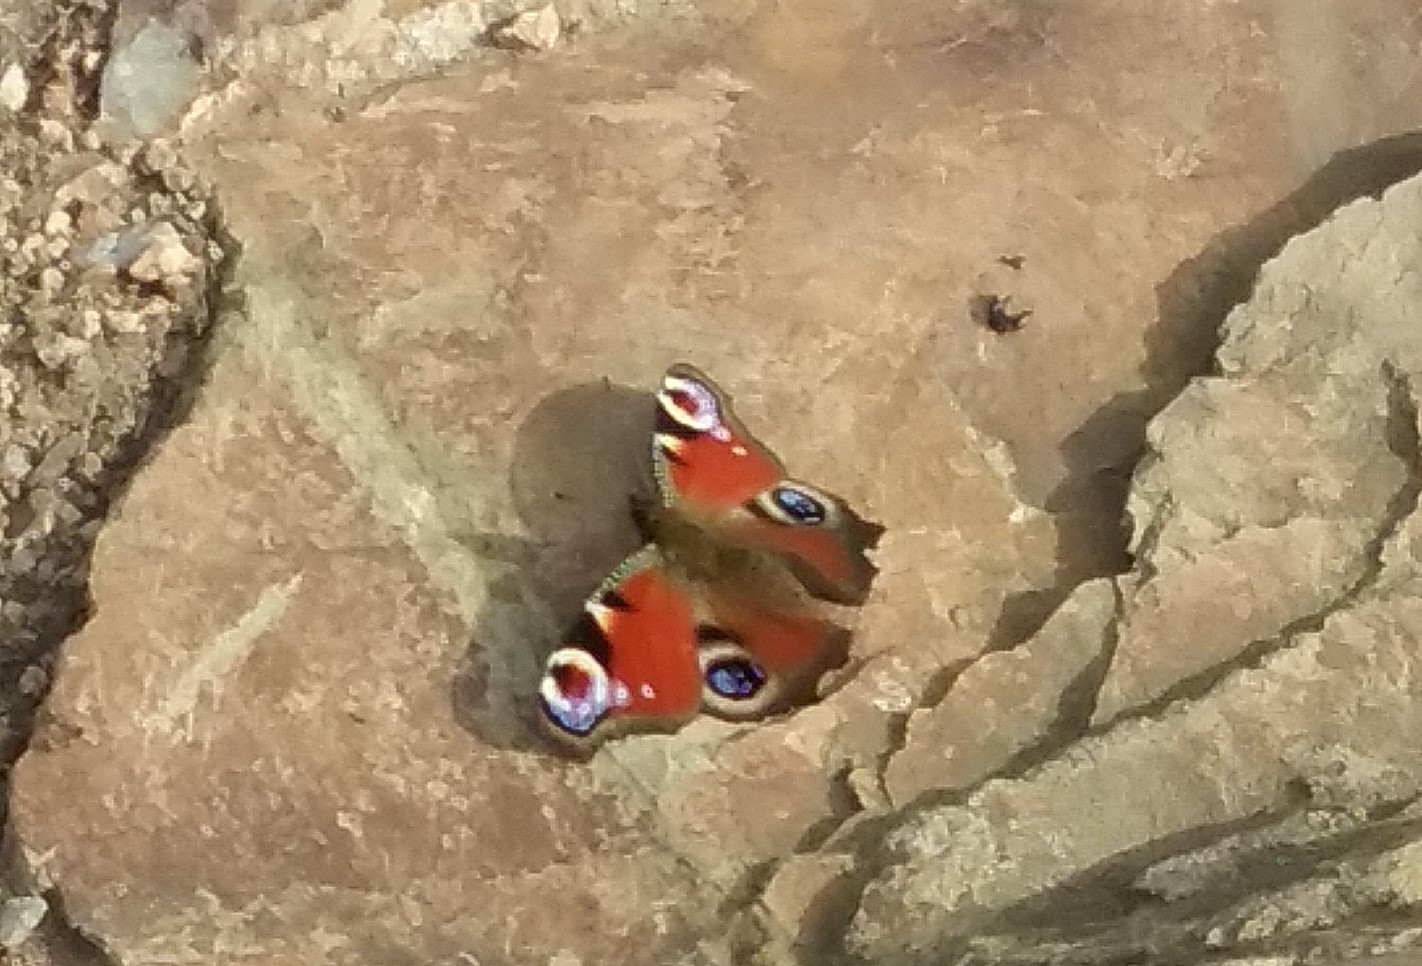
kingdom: Animalia
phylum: Arthropoda
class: Insecta
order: Lepidoptera
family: Nymphalidae
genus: Aglais
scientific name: Aglais io
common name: Peacock
